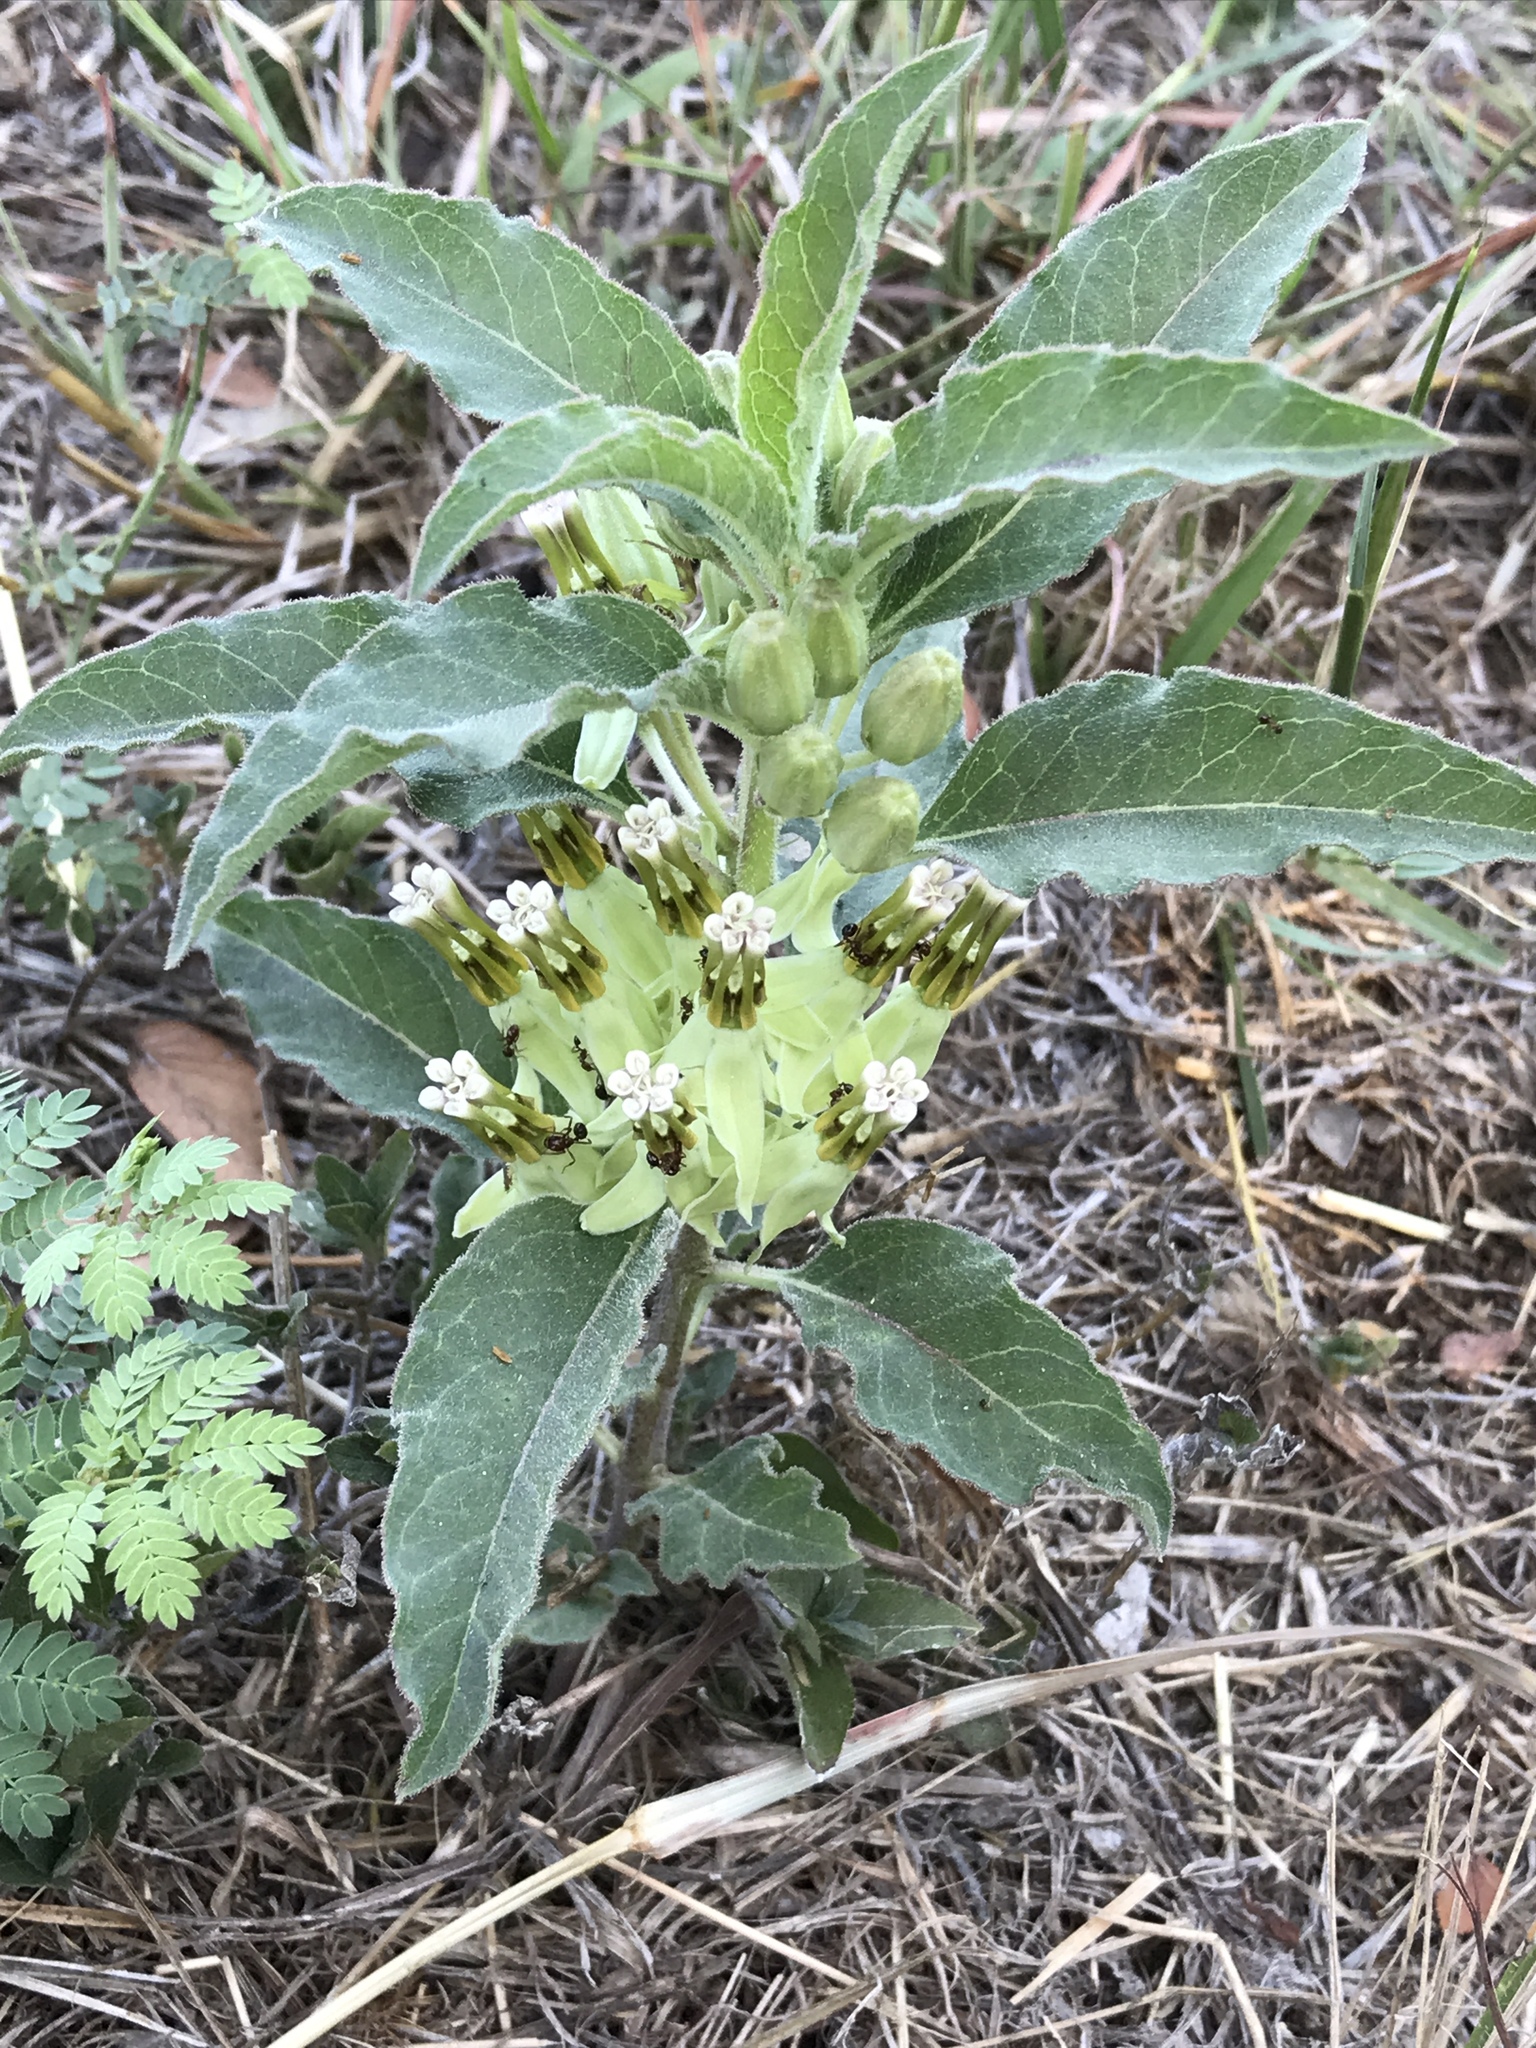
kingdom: Plantae
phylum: Tracheophyta
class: Magnoliopsida
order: Gentianales
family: Apocynaceae
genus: Asclepias
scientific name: Asclepias oenotheroides
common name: Zizotes milkweed
